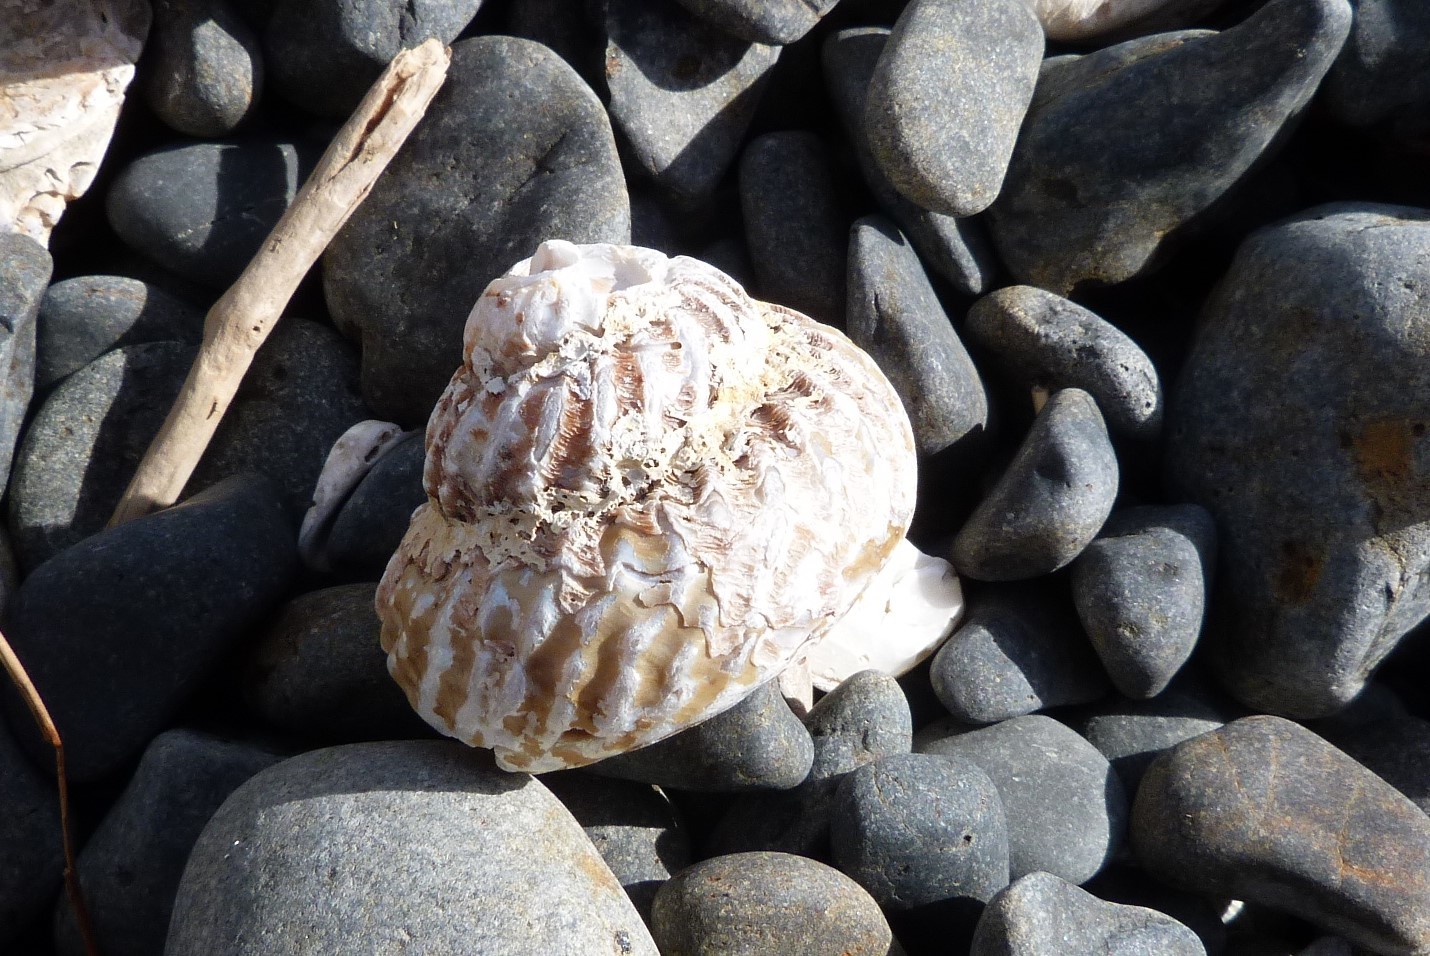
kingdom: Animalia
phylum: Mollusca
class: Gastropoda
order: Trochida
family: Turbinidae
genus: Cookia
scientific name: Cookia sulcata
